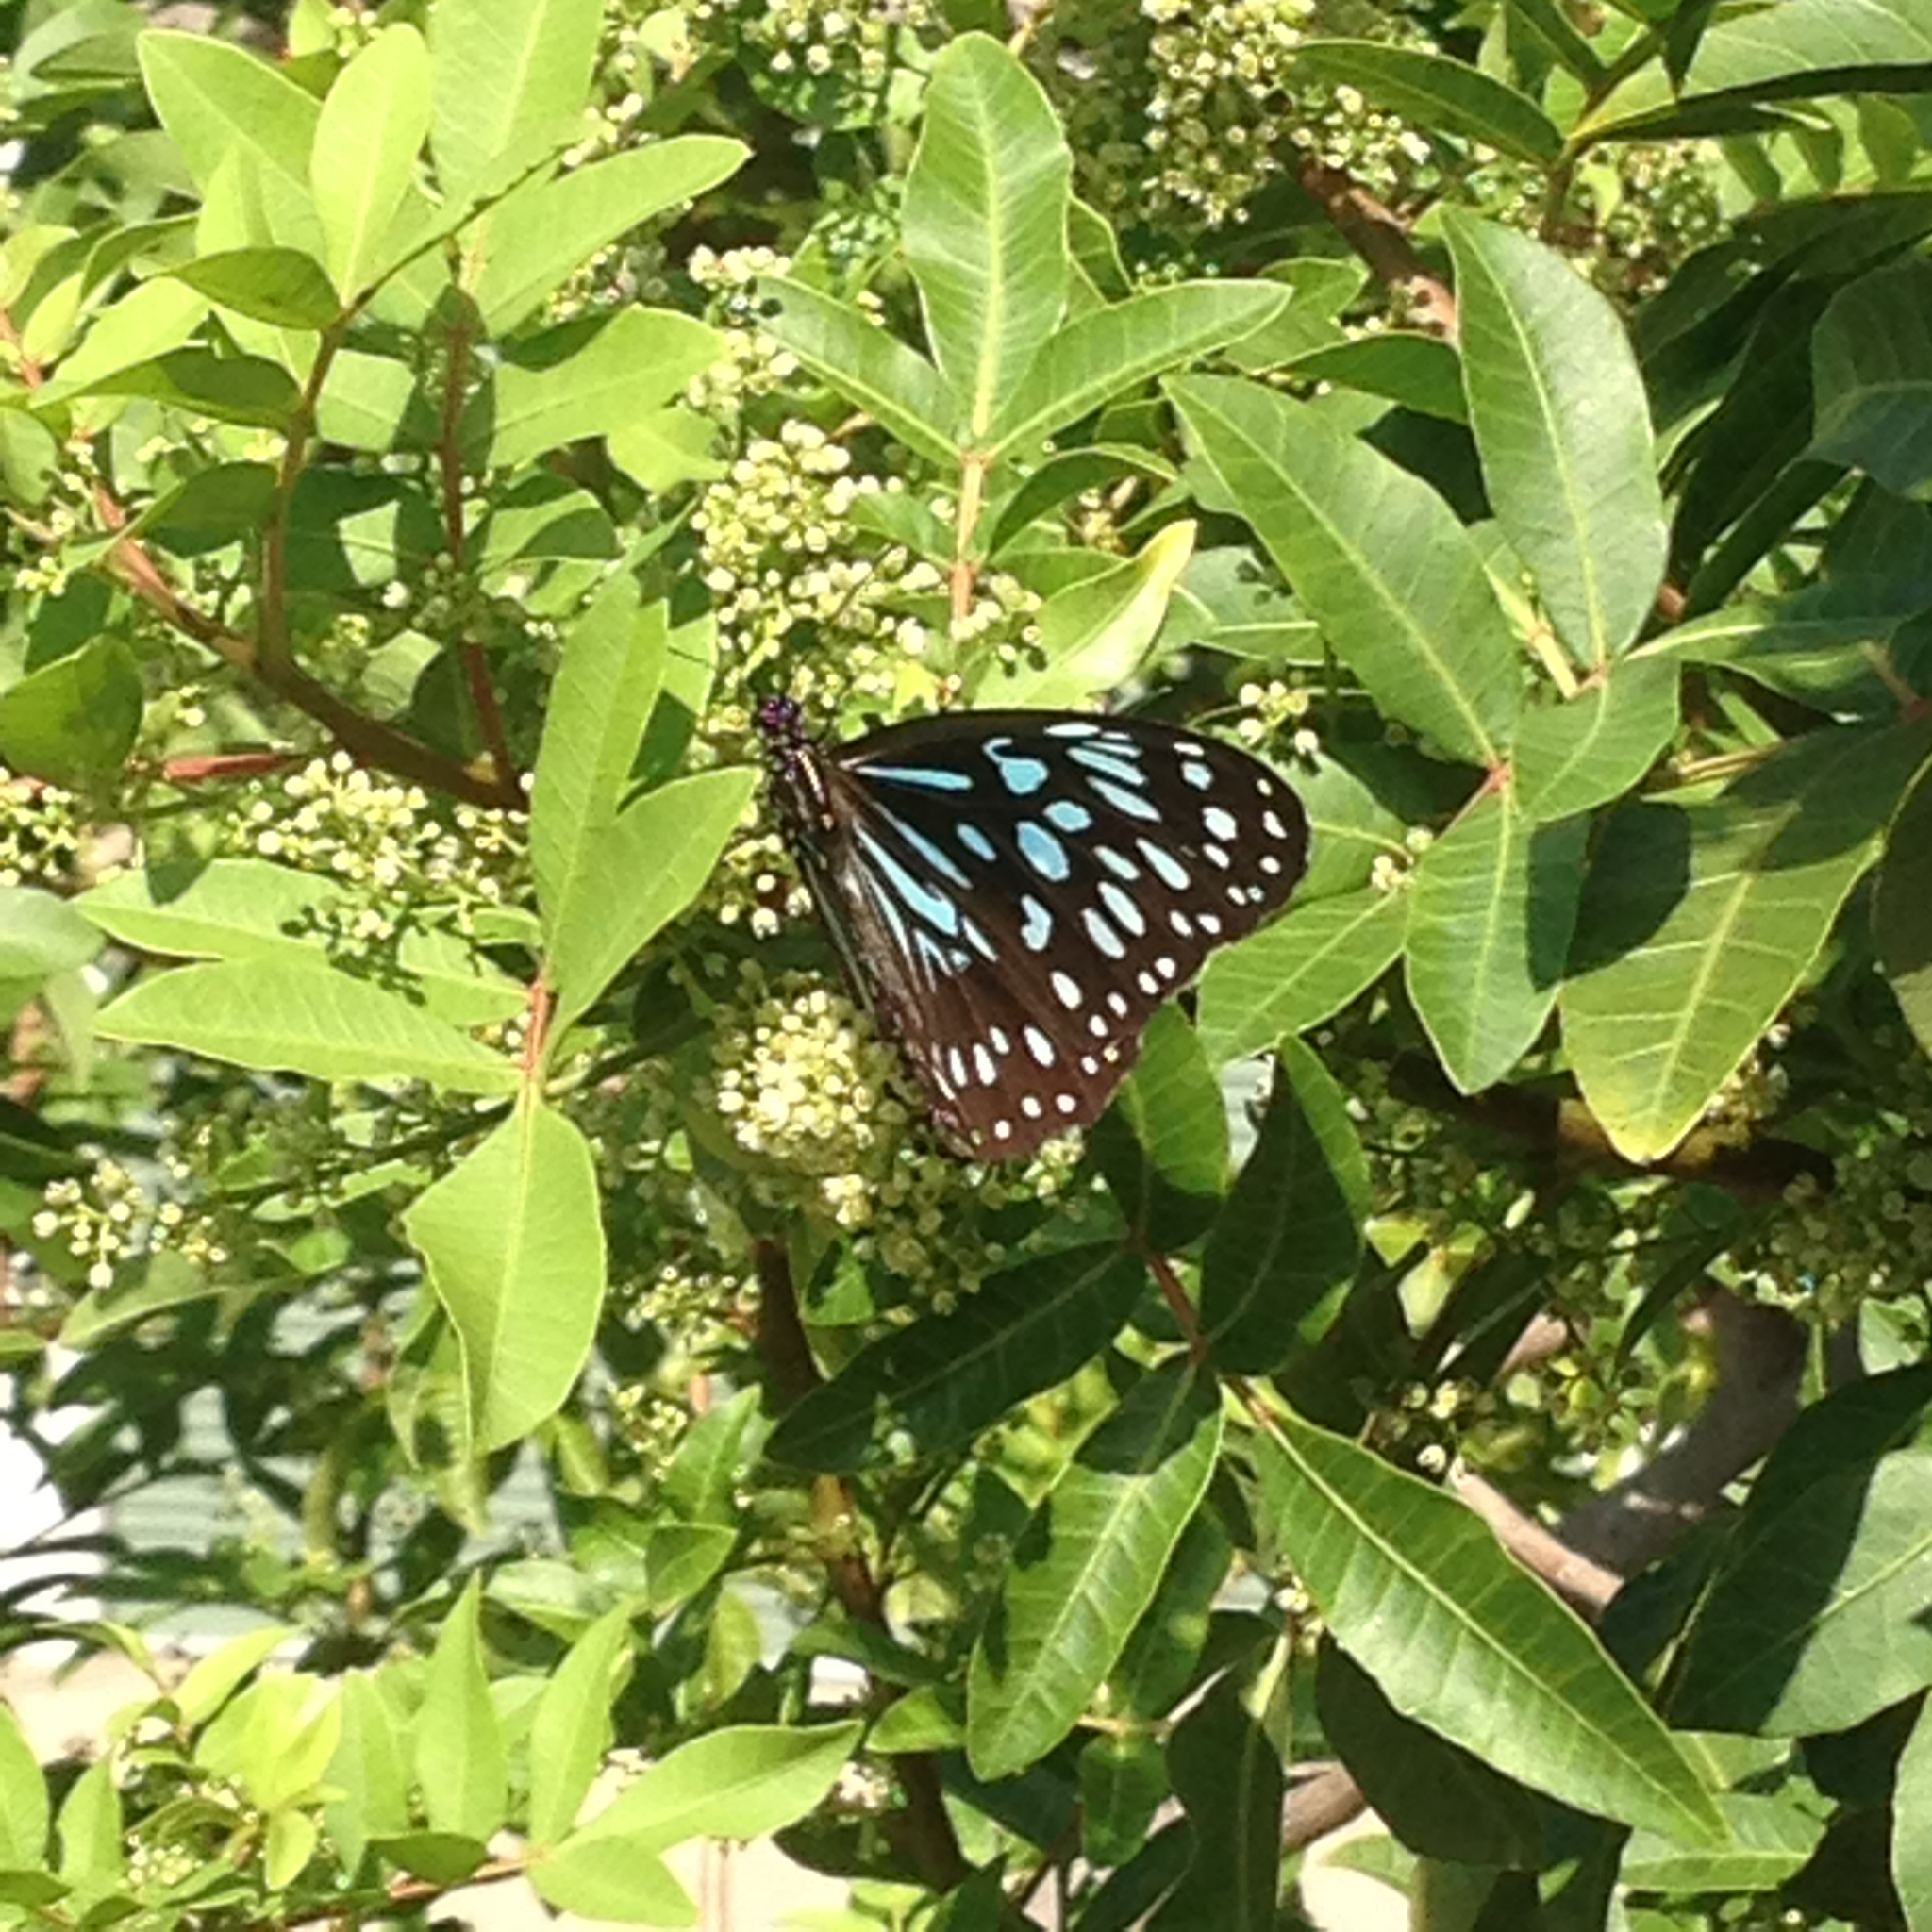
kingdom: Animalia
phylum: Arthropoda
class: Insecta
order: Lepidoptera
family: Nymphalidae
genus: Tirumala
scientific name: Tirumala hamata
